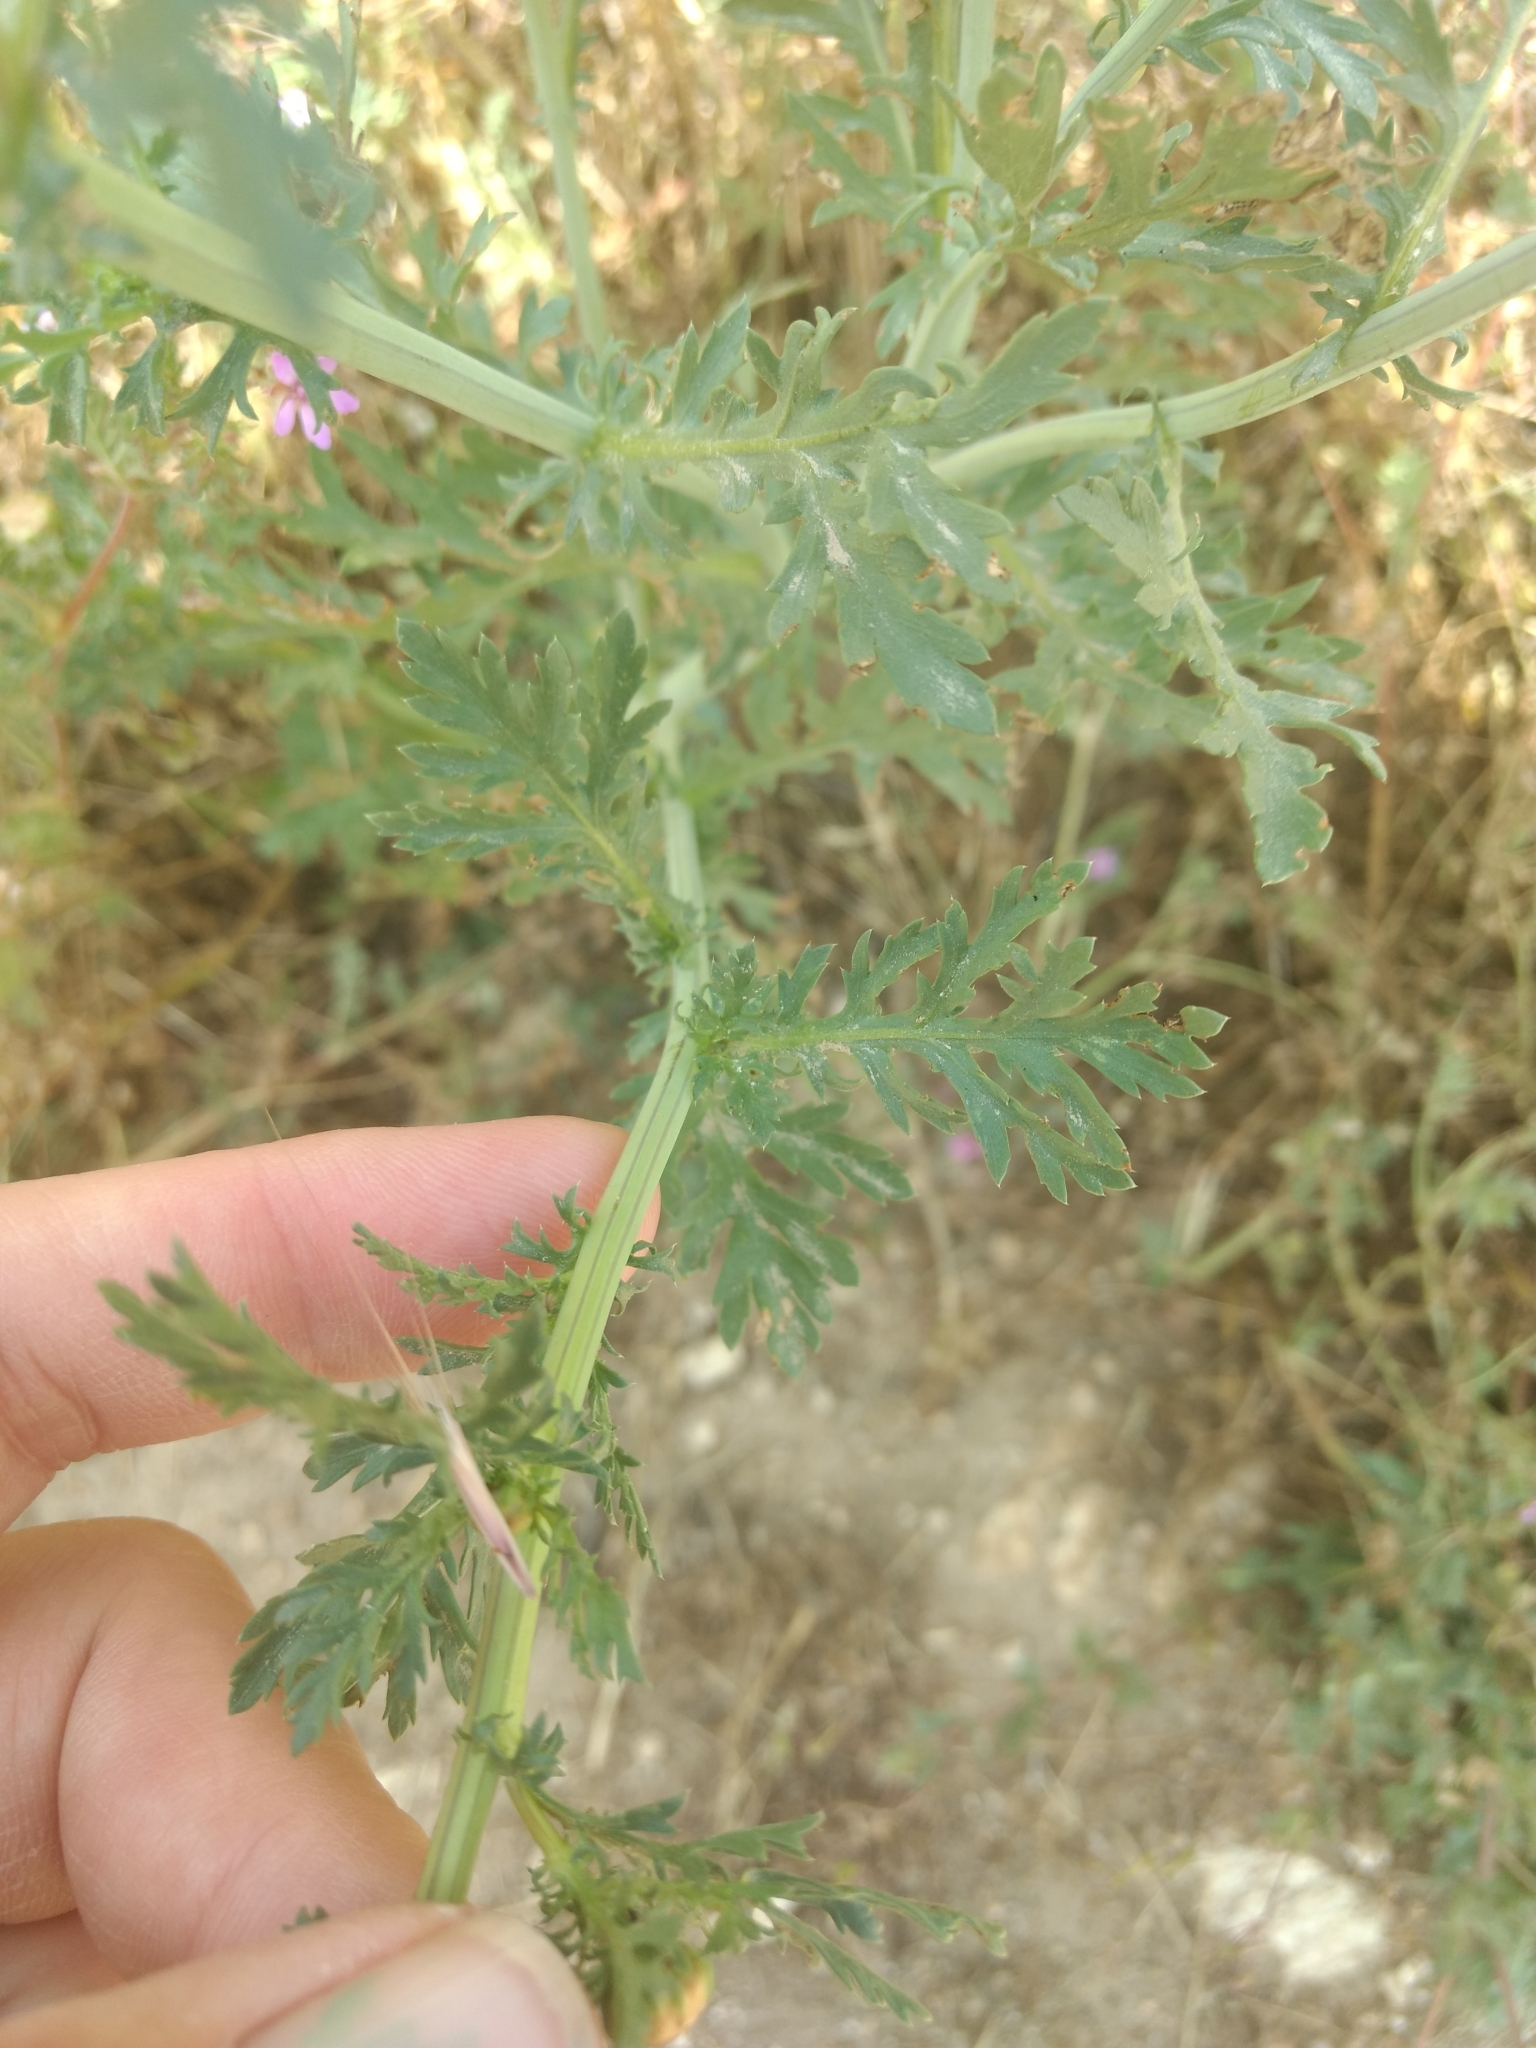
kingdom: Plantae
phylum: Tracheophyta
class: Magnoliopsida
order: Asterales
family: Asteraceae
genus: Glebionis
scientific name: Glebionis coronaria
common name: Crowndaisy
